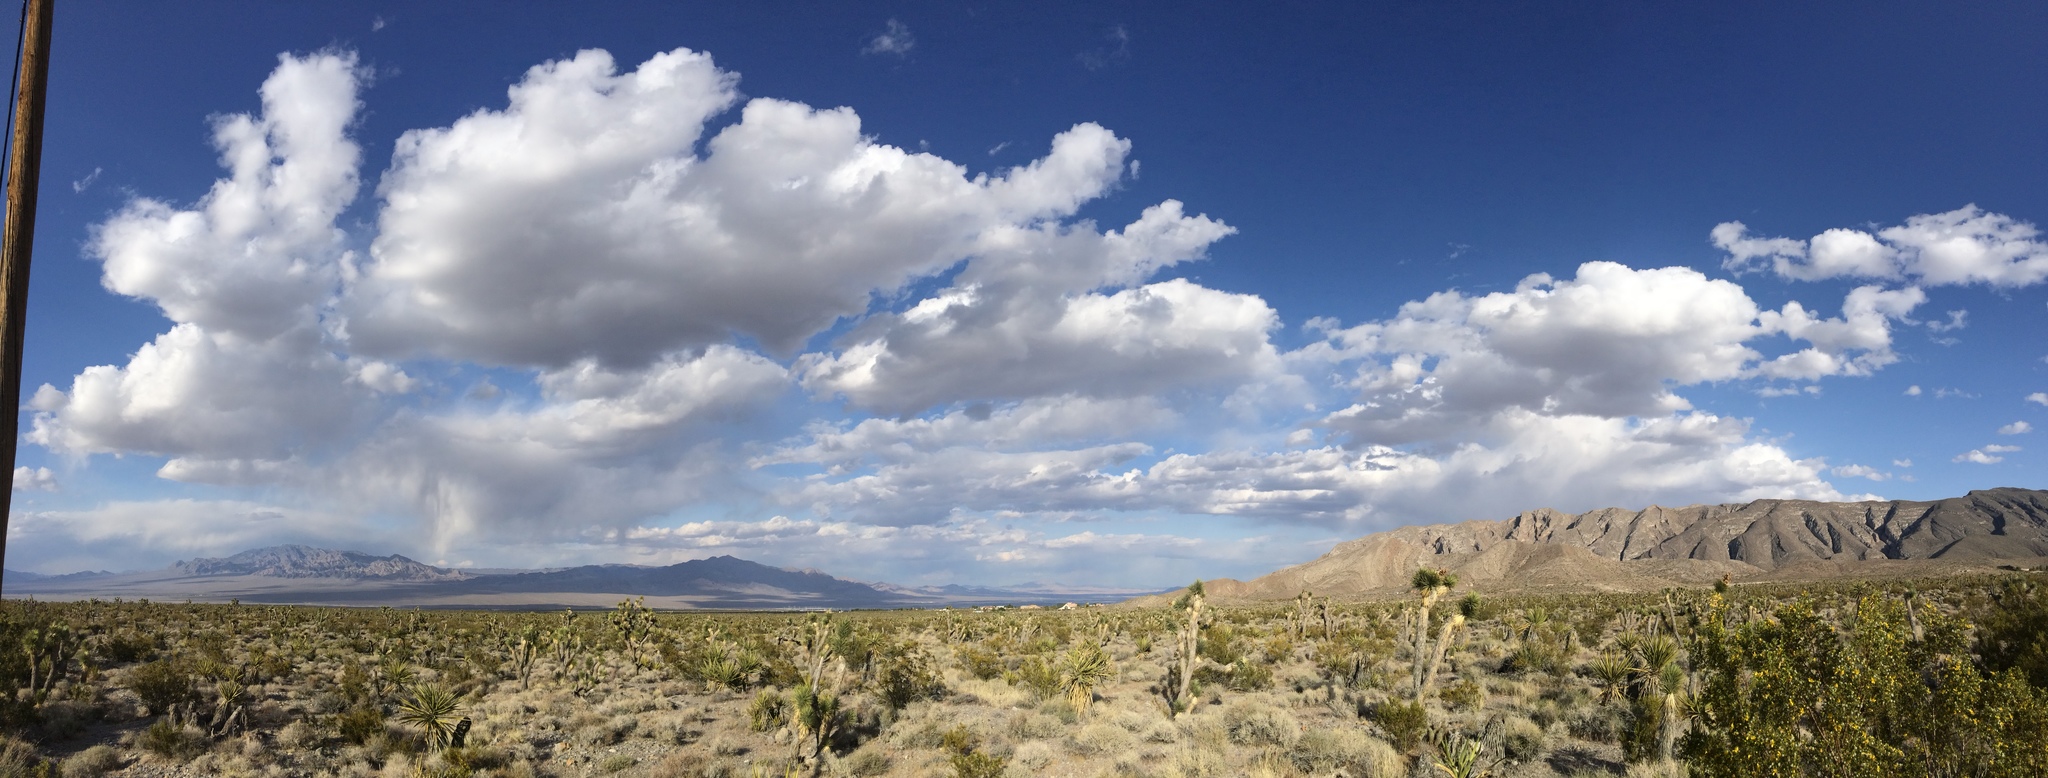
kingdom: Plantae
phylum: Tracheophyta
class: Liliopsida
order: Asparagales
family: Asparagaceae
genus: Yucca
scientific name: Yucca brevifolia
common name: Joshua tree
